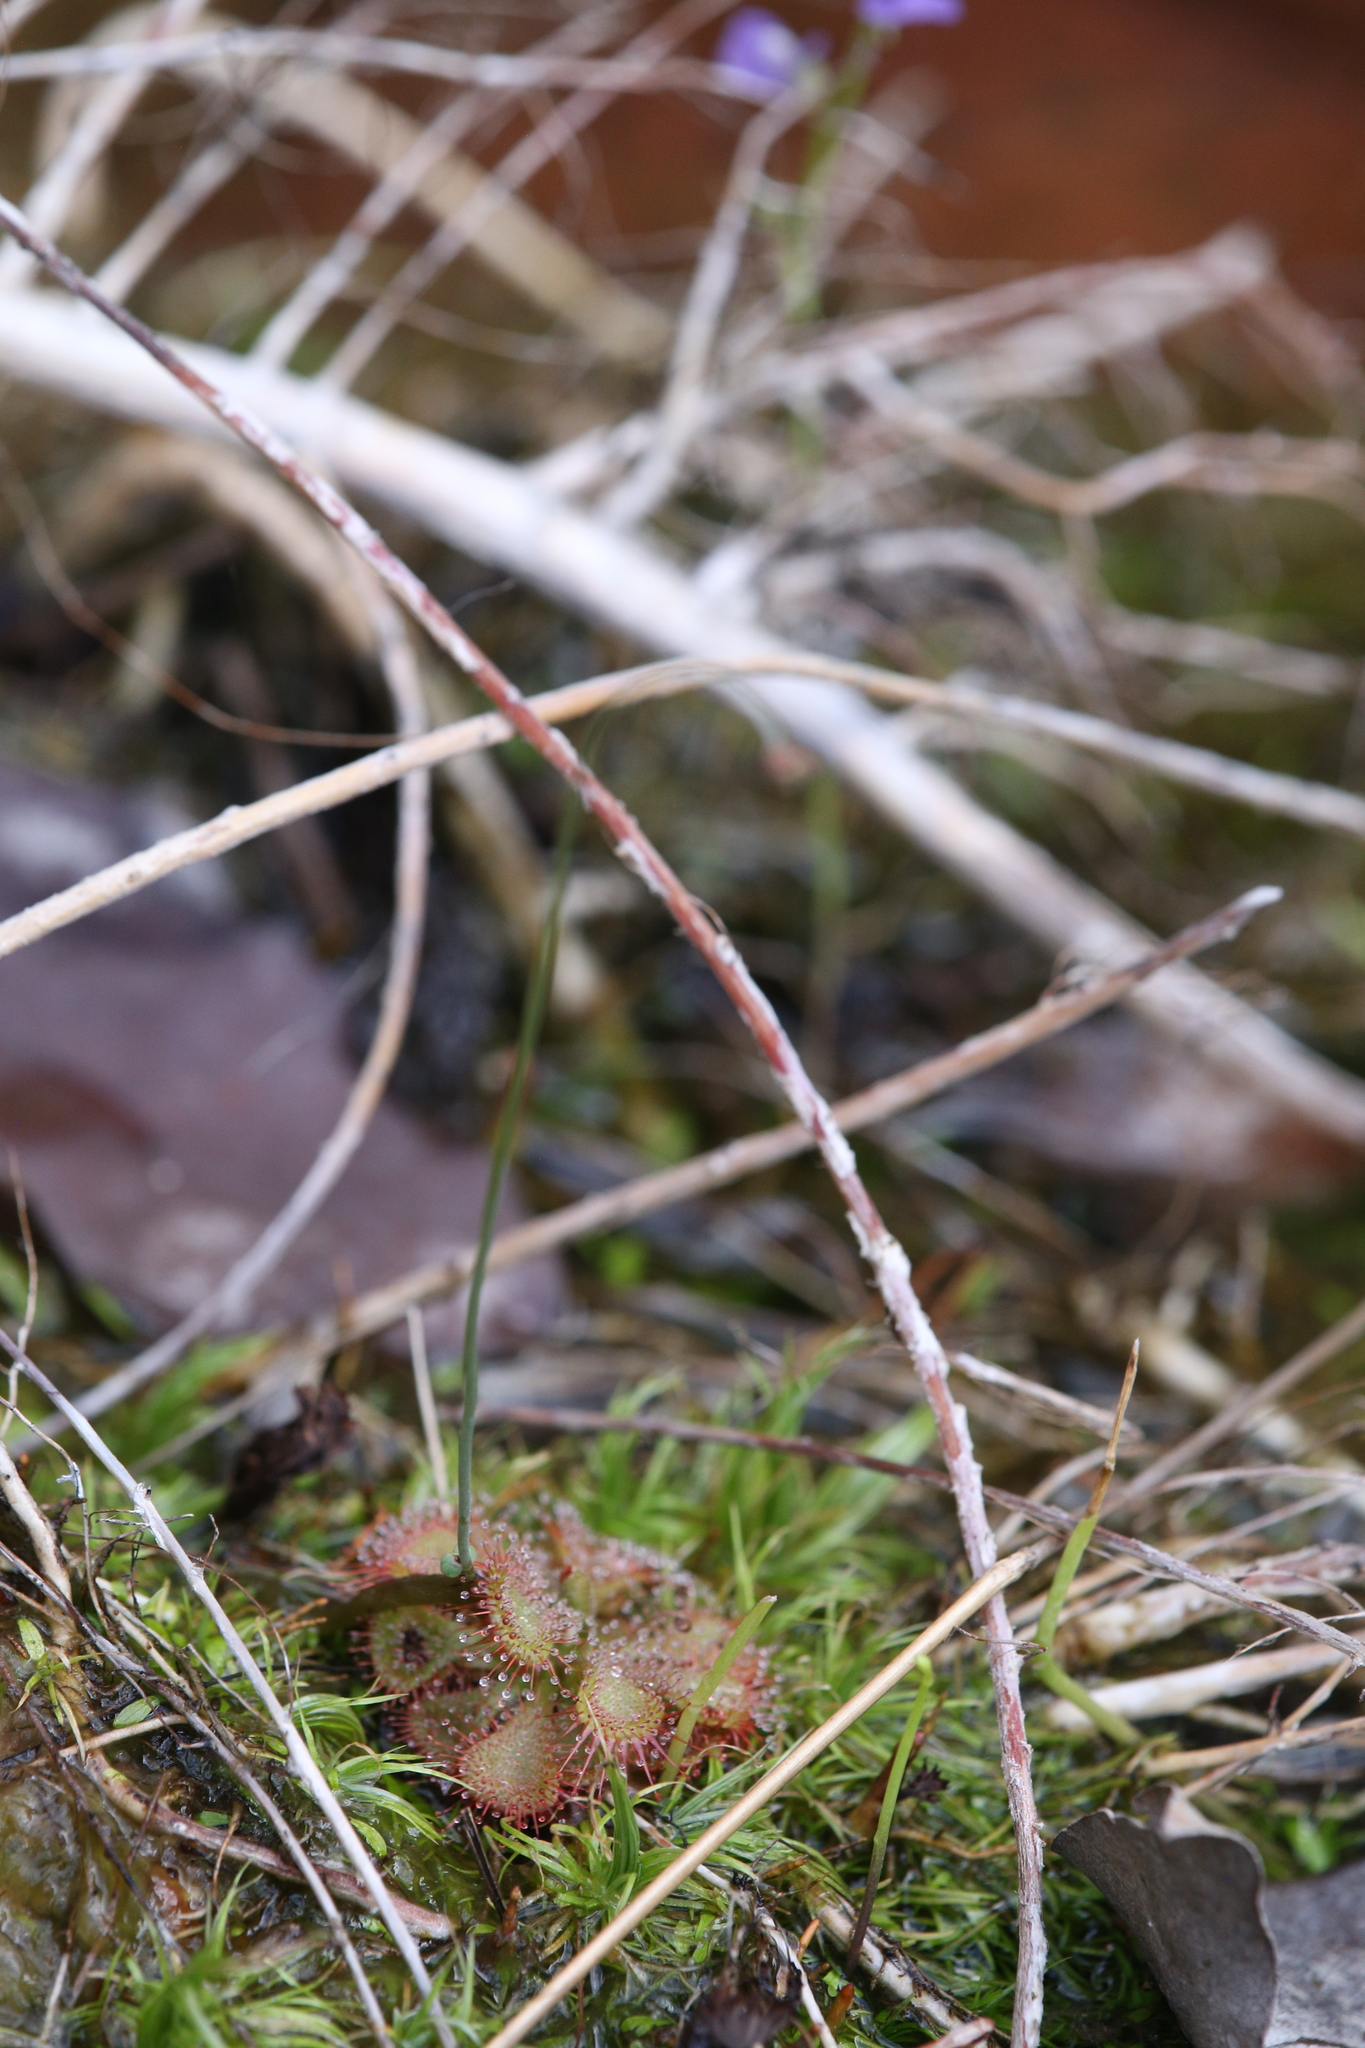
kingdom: Plantae
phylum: Tracheophyta
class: Magnoliopsida
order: Caryophyllales
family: Droseraceae
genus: Drosera
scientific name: Drosera spatulata
